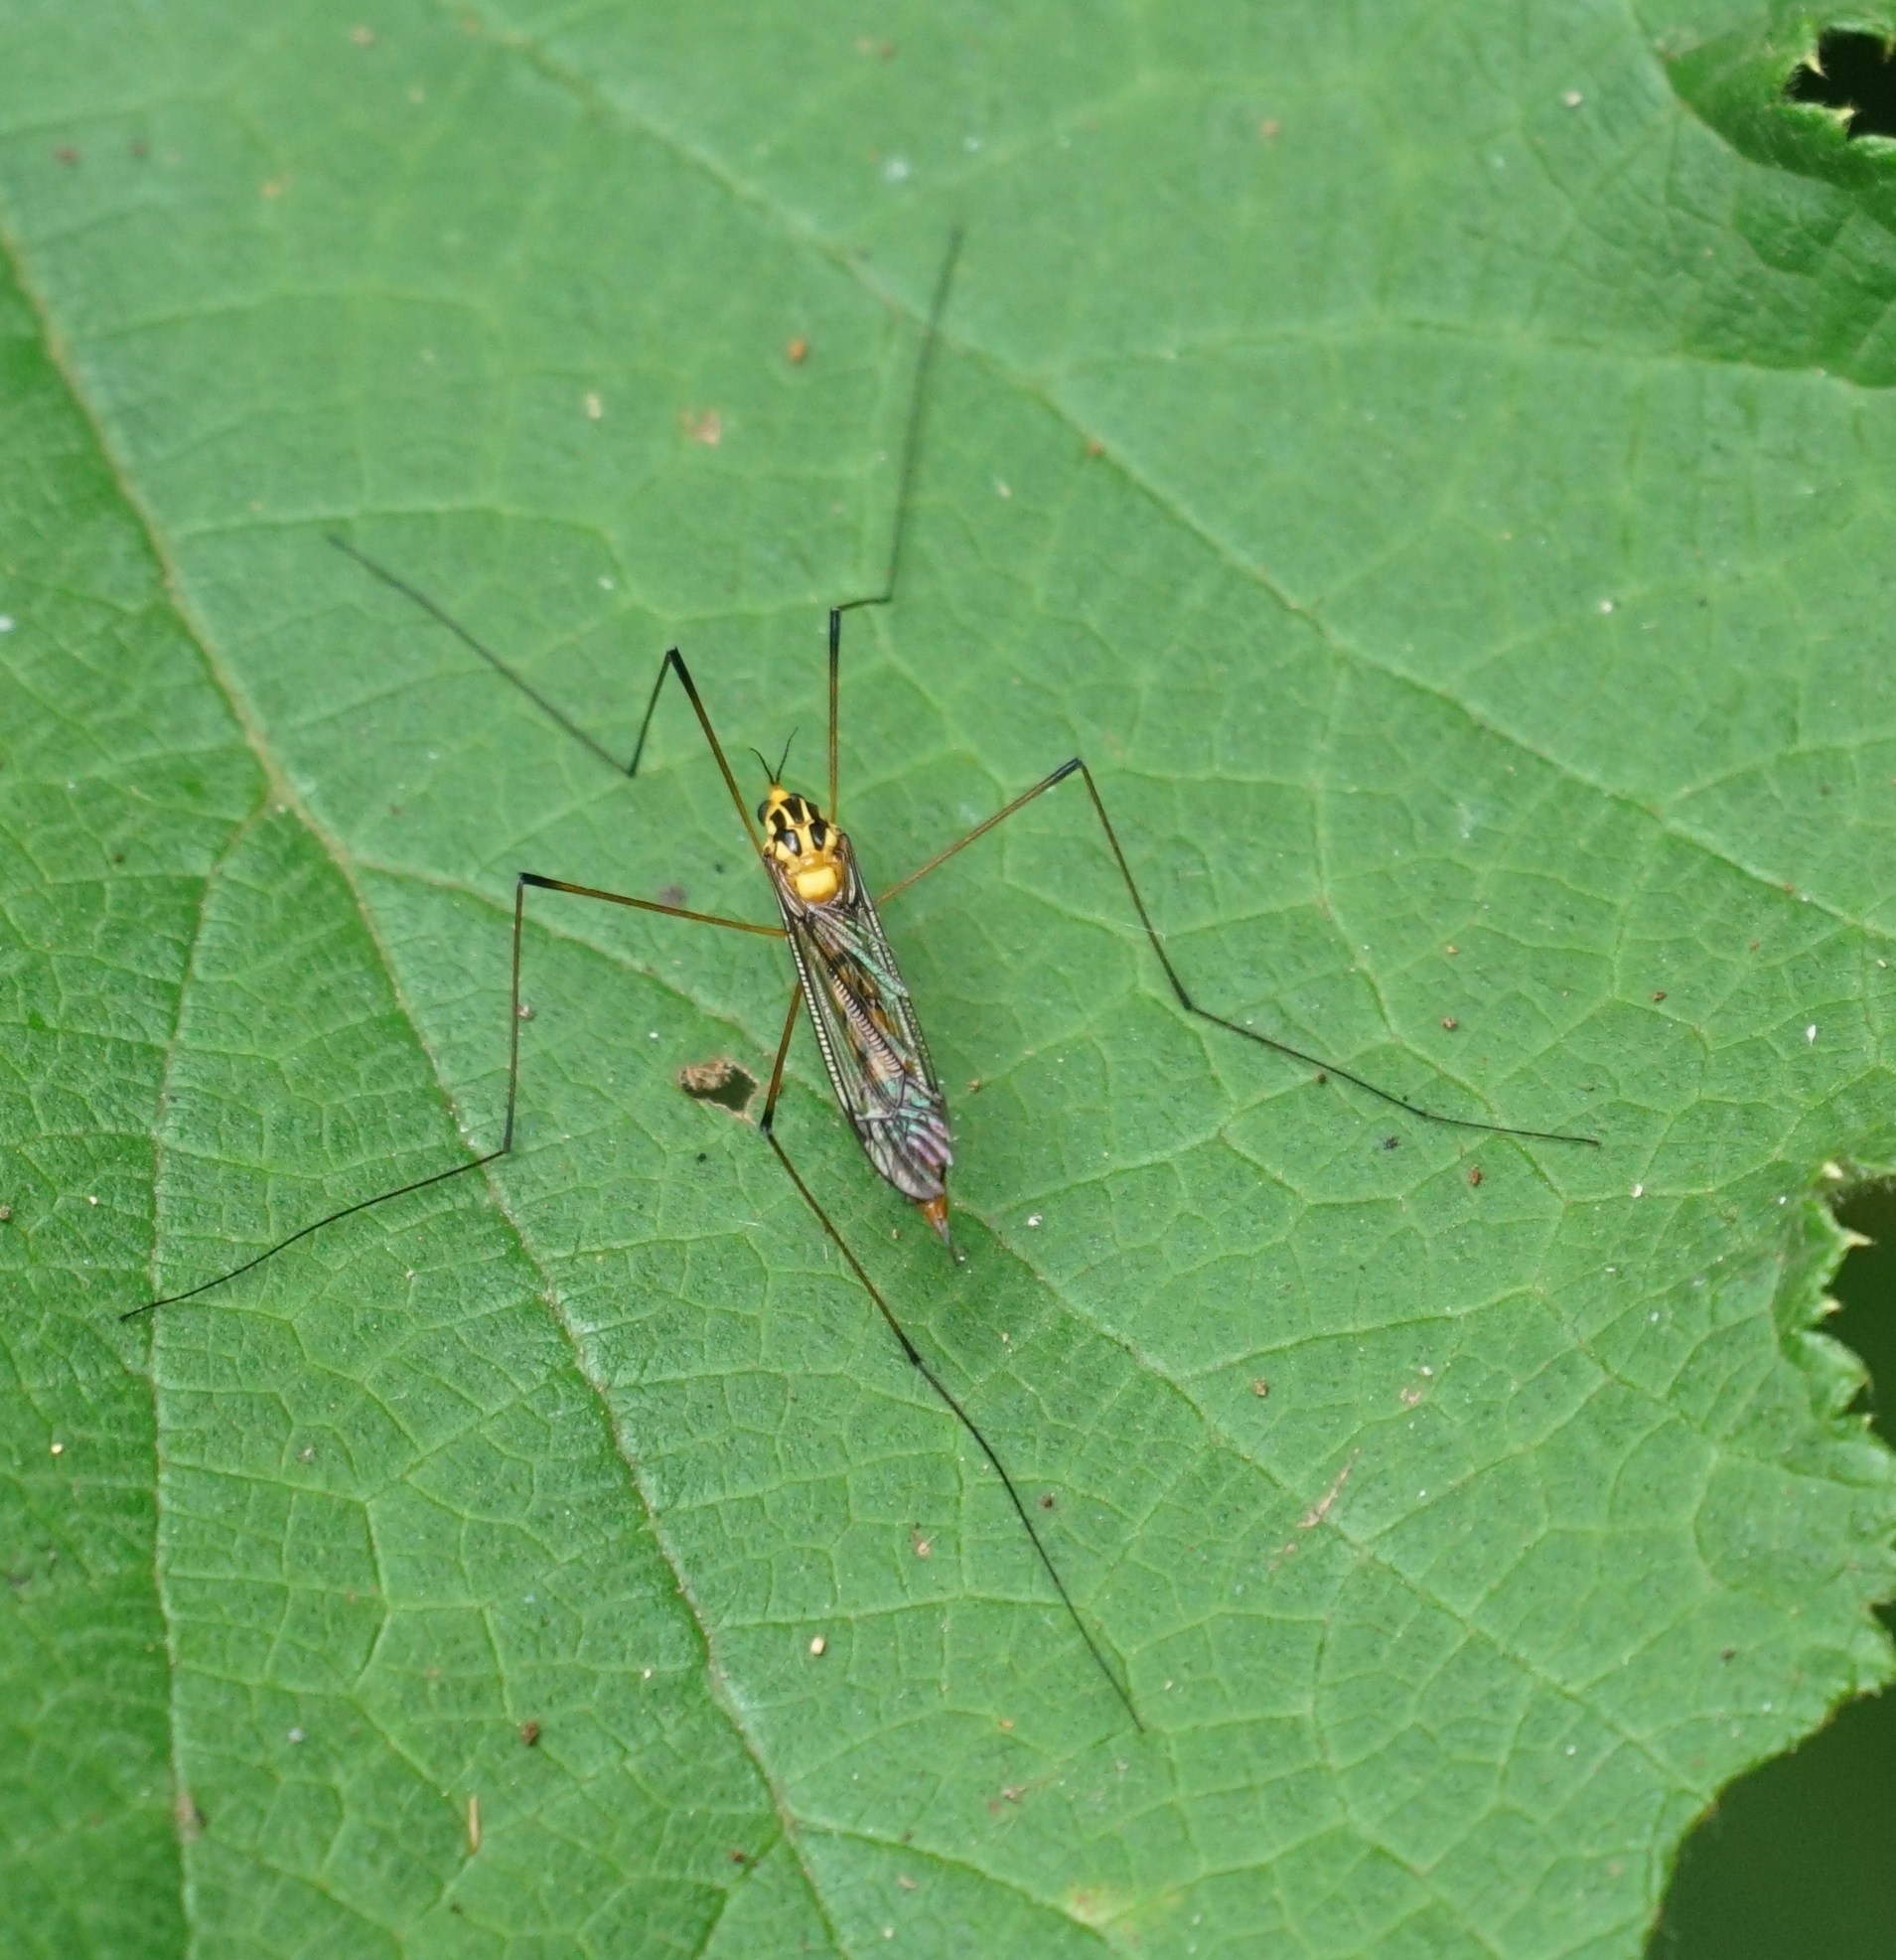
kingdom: Animalia
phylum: Arthropoda
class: Insecta
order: Diptera
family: Tipulidae
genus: Nephrotoma
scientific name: Nephrotoma australasiae
